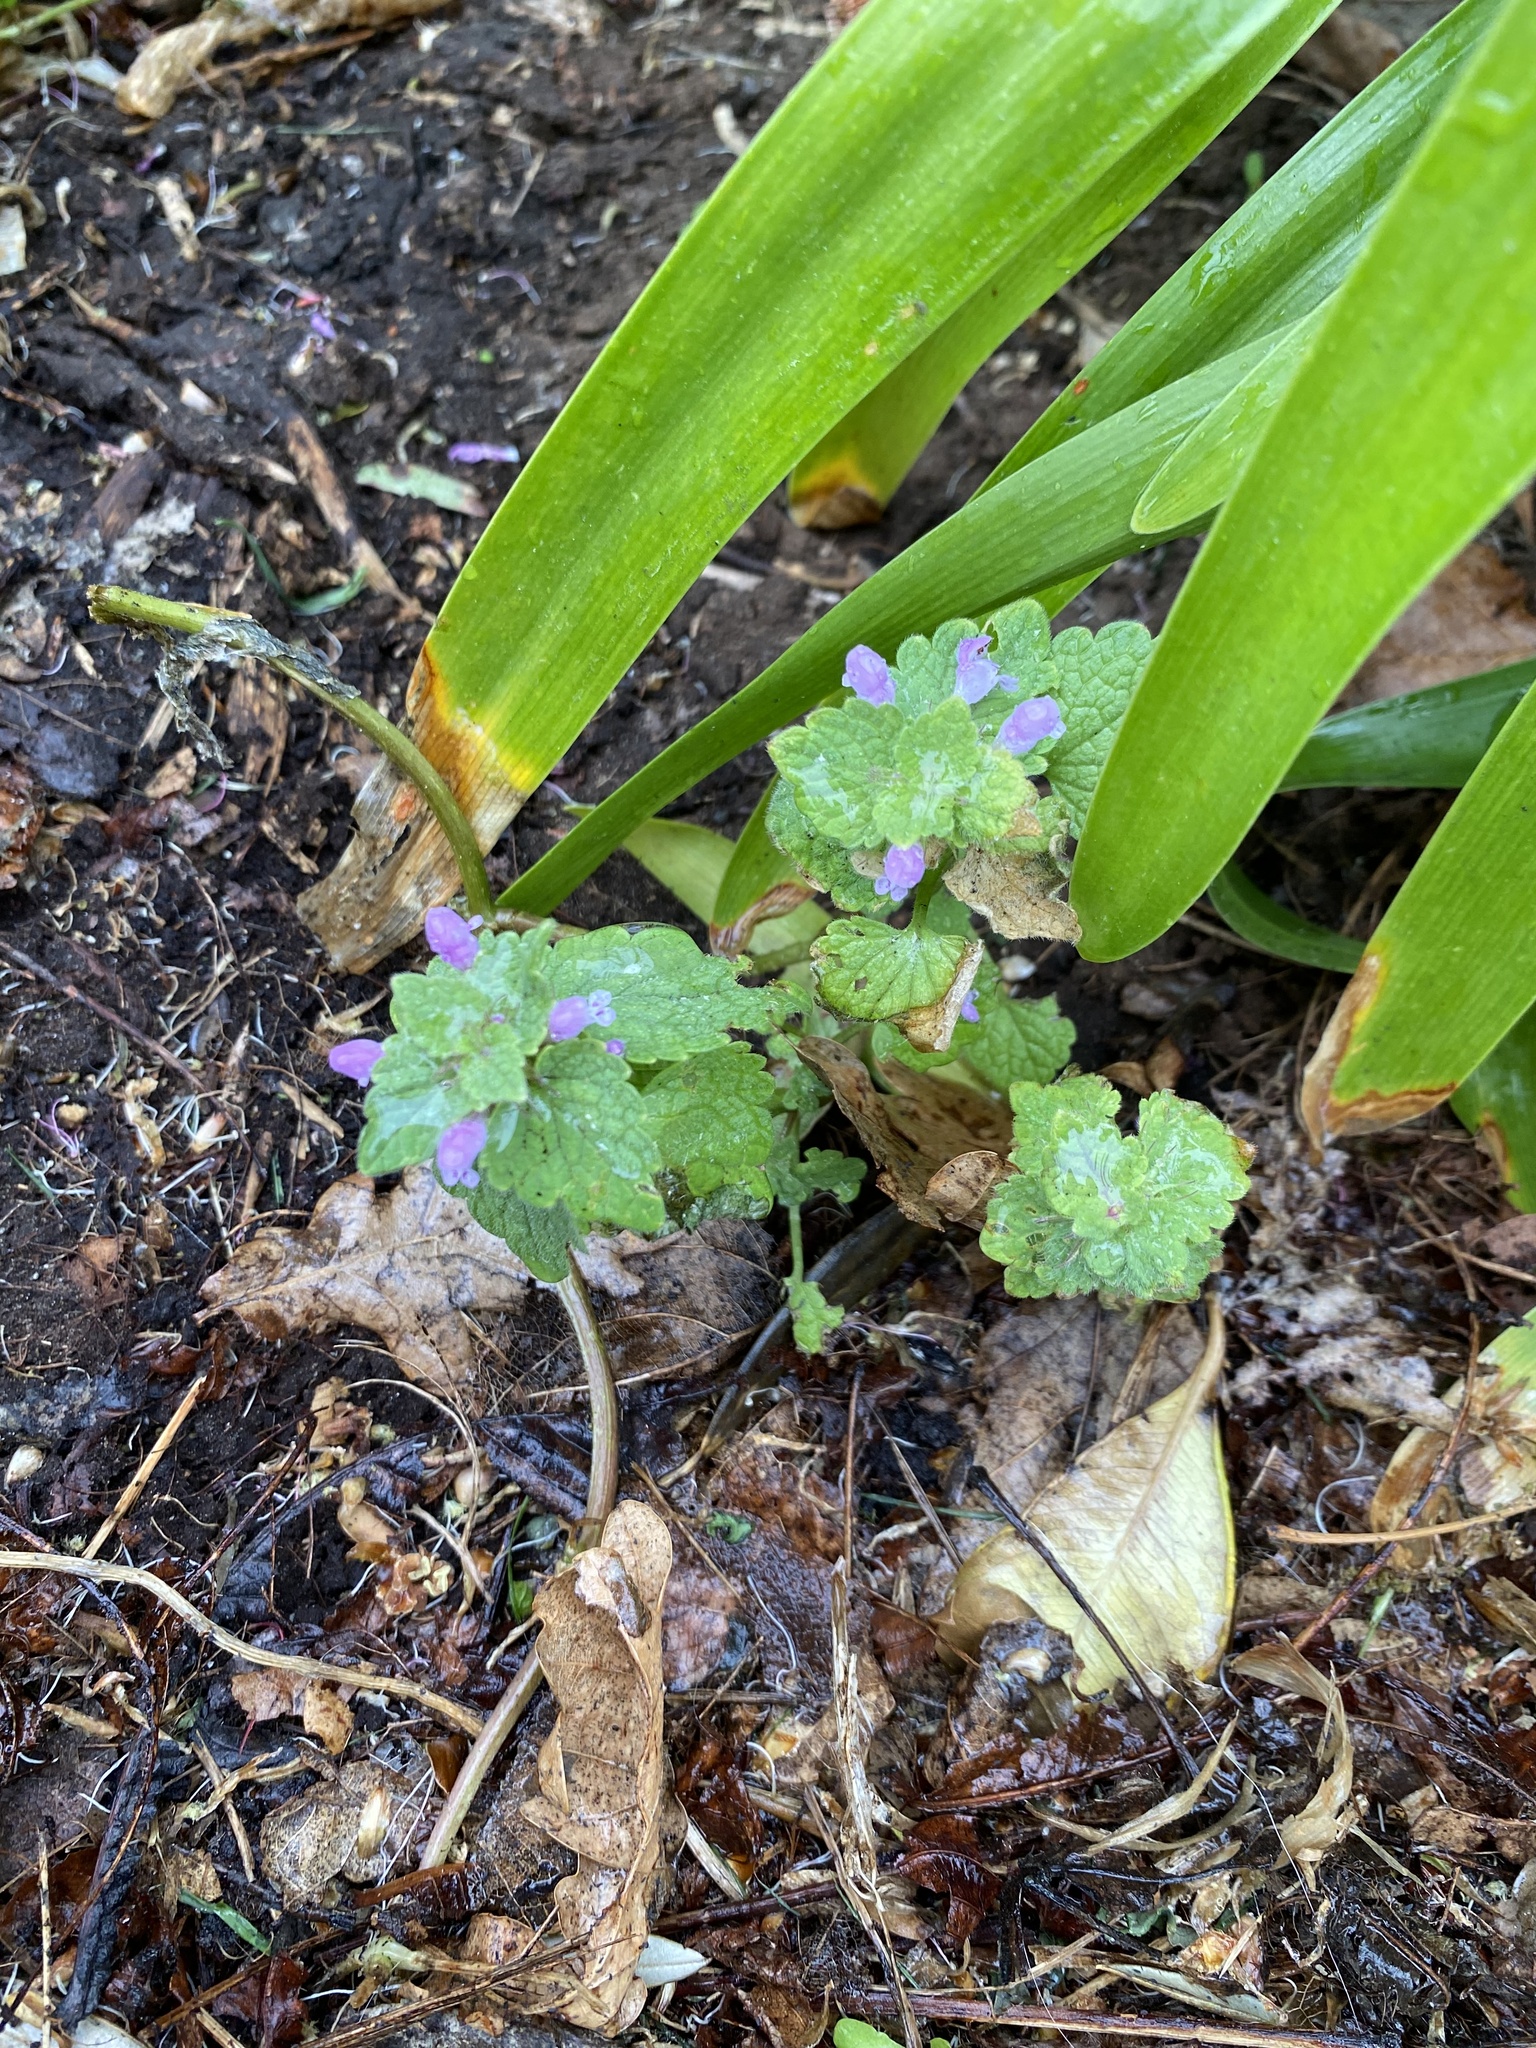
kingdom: Plantae
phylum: Tracheophyta
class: Magnoliopsida
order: Lamiales
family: Lamiaceae
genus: Lamium
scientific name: Lamium purpureum
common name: Red dead-nettle
